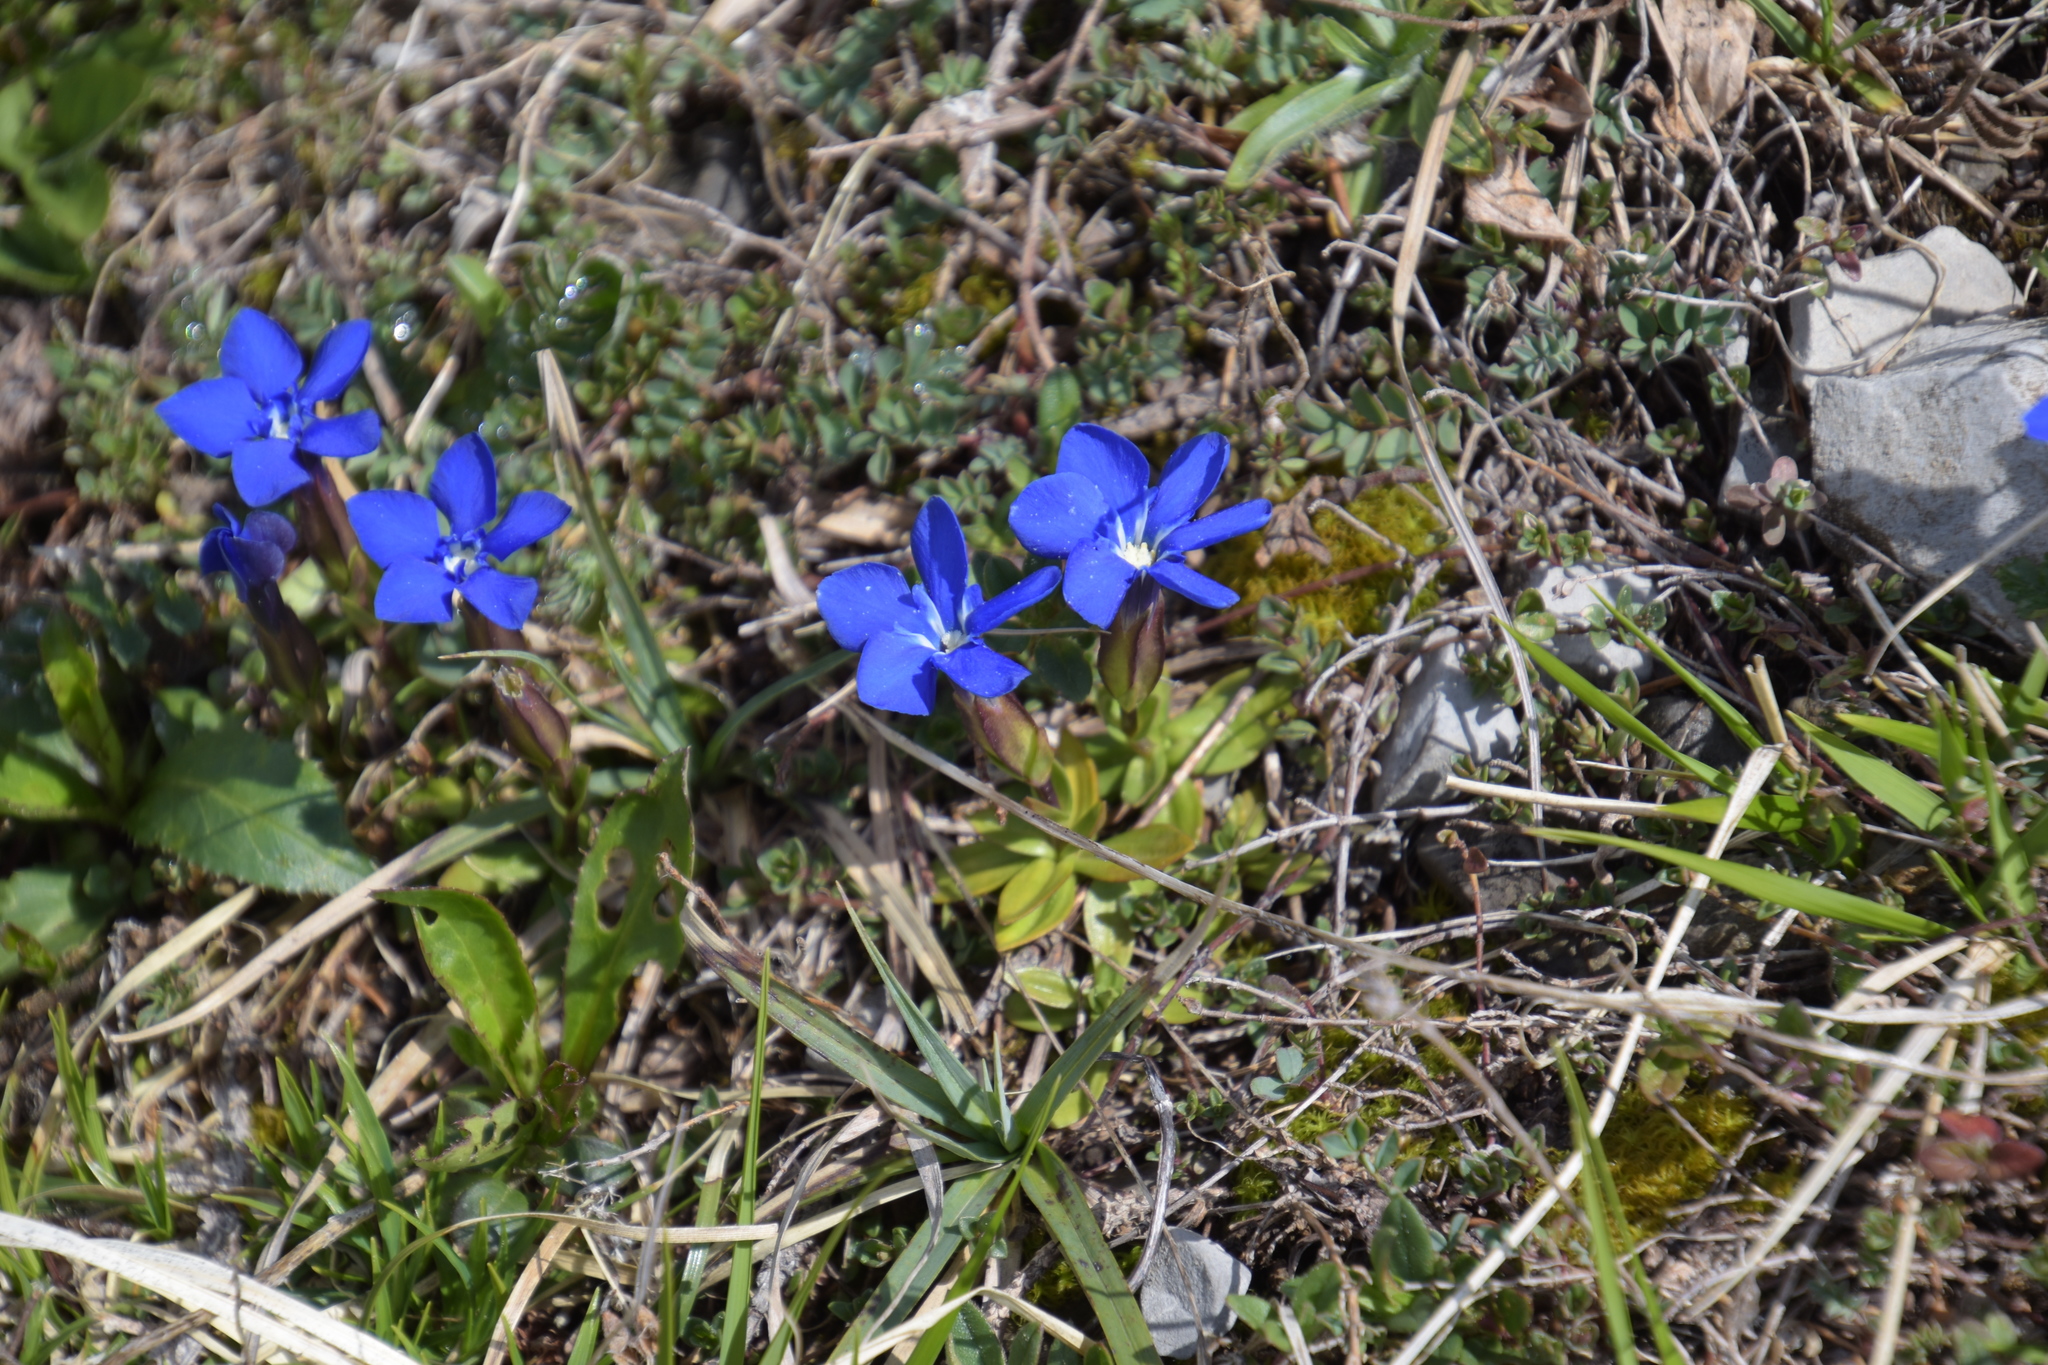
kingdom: Plantae
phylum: Tracheophyta
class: Magnoliopsida
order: Gentianales
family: Gentianaceae
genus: Gentiana
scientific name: Gentiana verna
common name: Spring gentian
